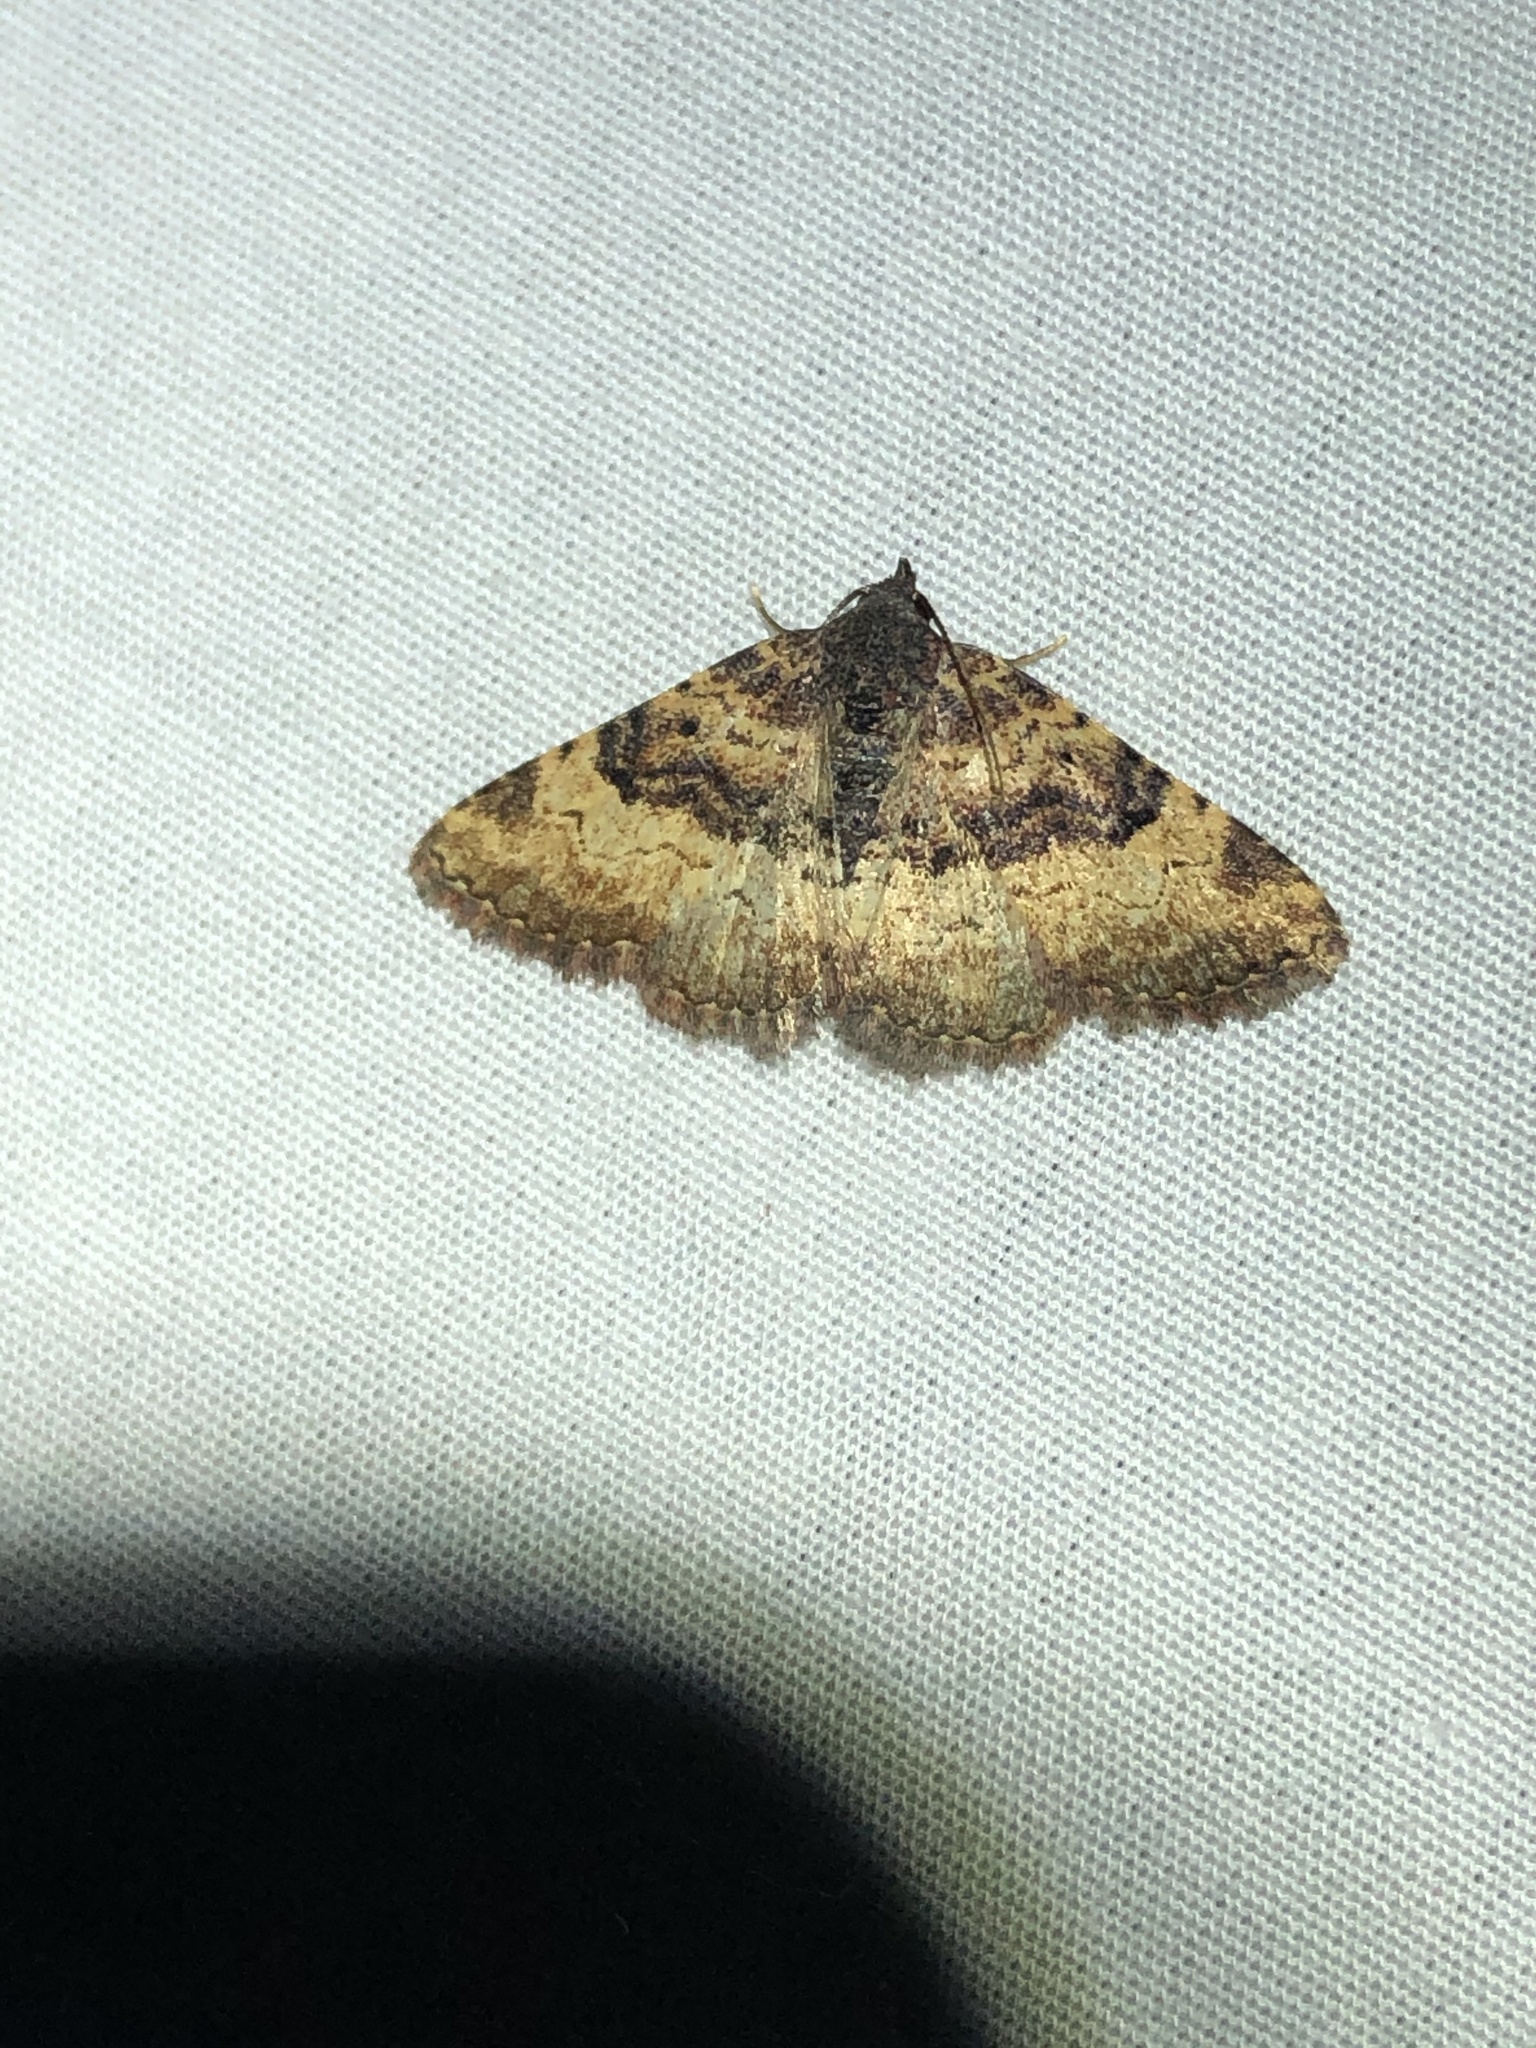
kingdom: Animalia
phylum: Arthropoda
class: Insecta
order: Lepidoptera
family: Erebidae
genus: Metalectra
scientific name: Metalectra edilis
